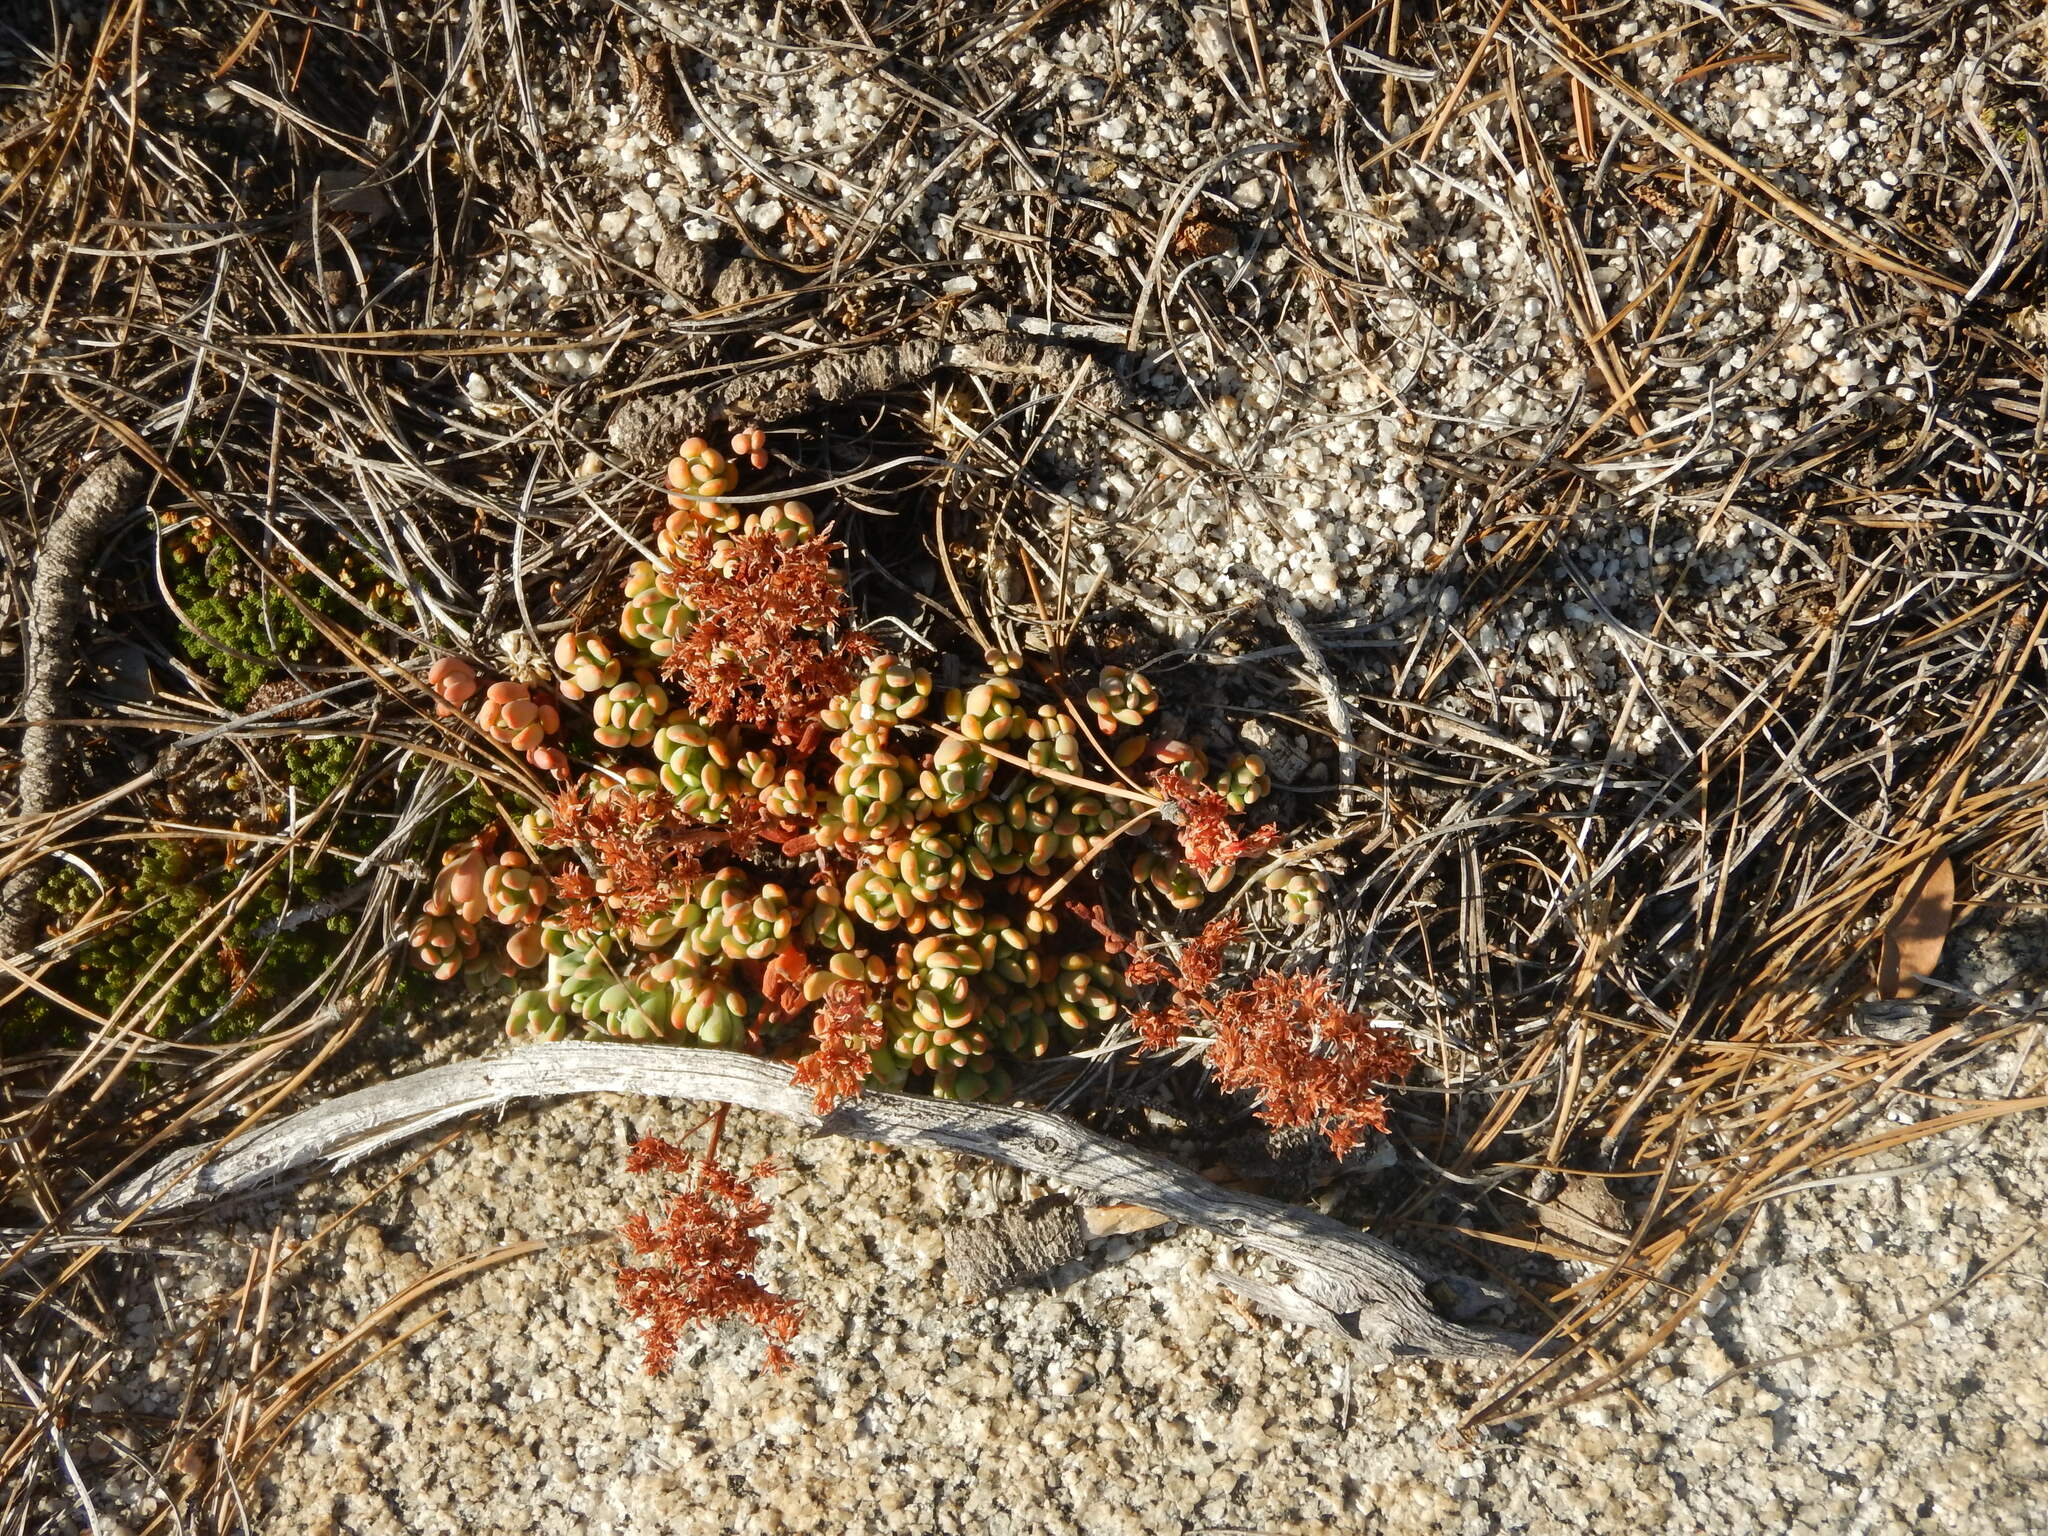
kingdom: Plantae
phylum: Tracheophyta
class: Magnoliopsida
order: Saxifragales
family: Crassulaceae
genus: Sedum
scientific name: Sedum obtusatum
